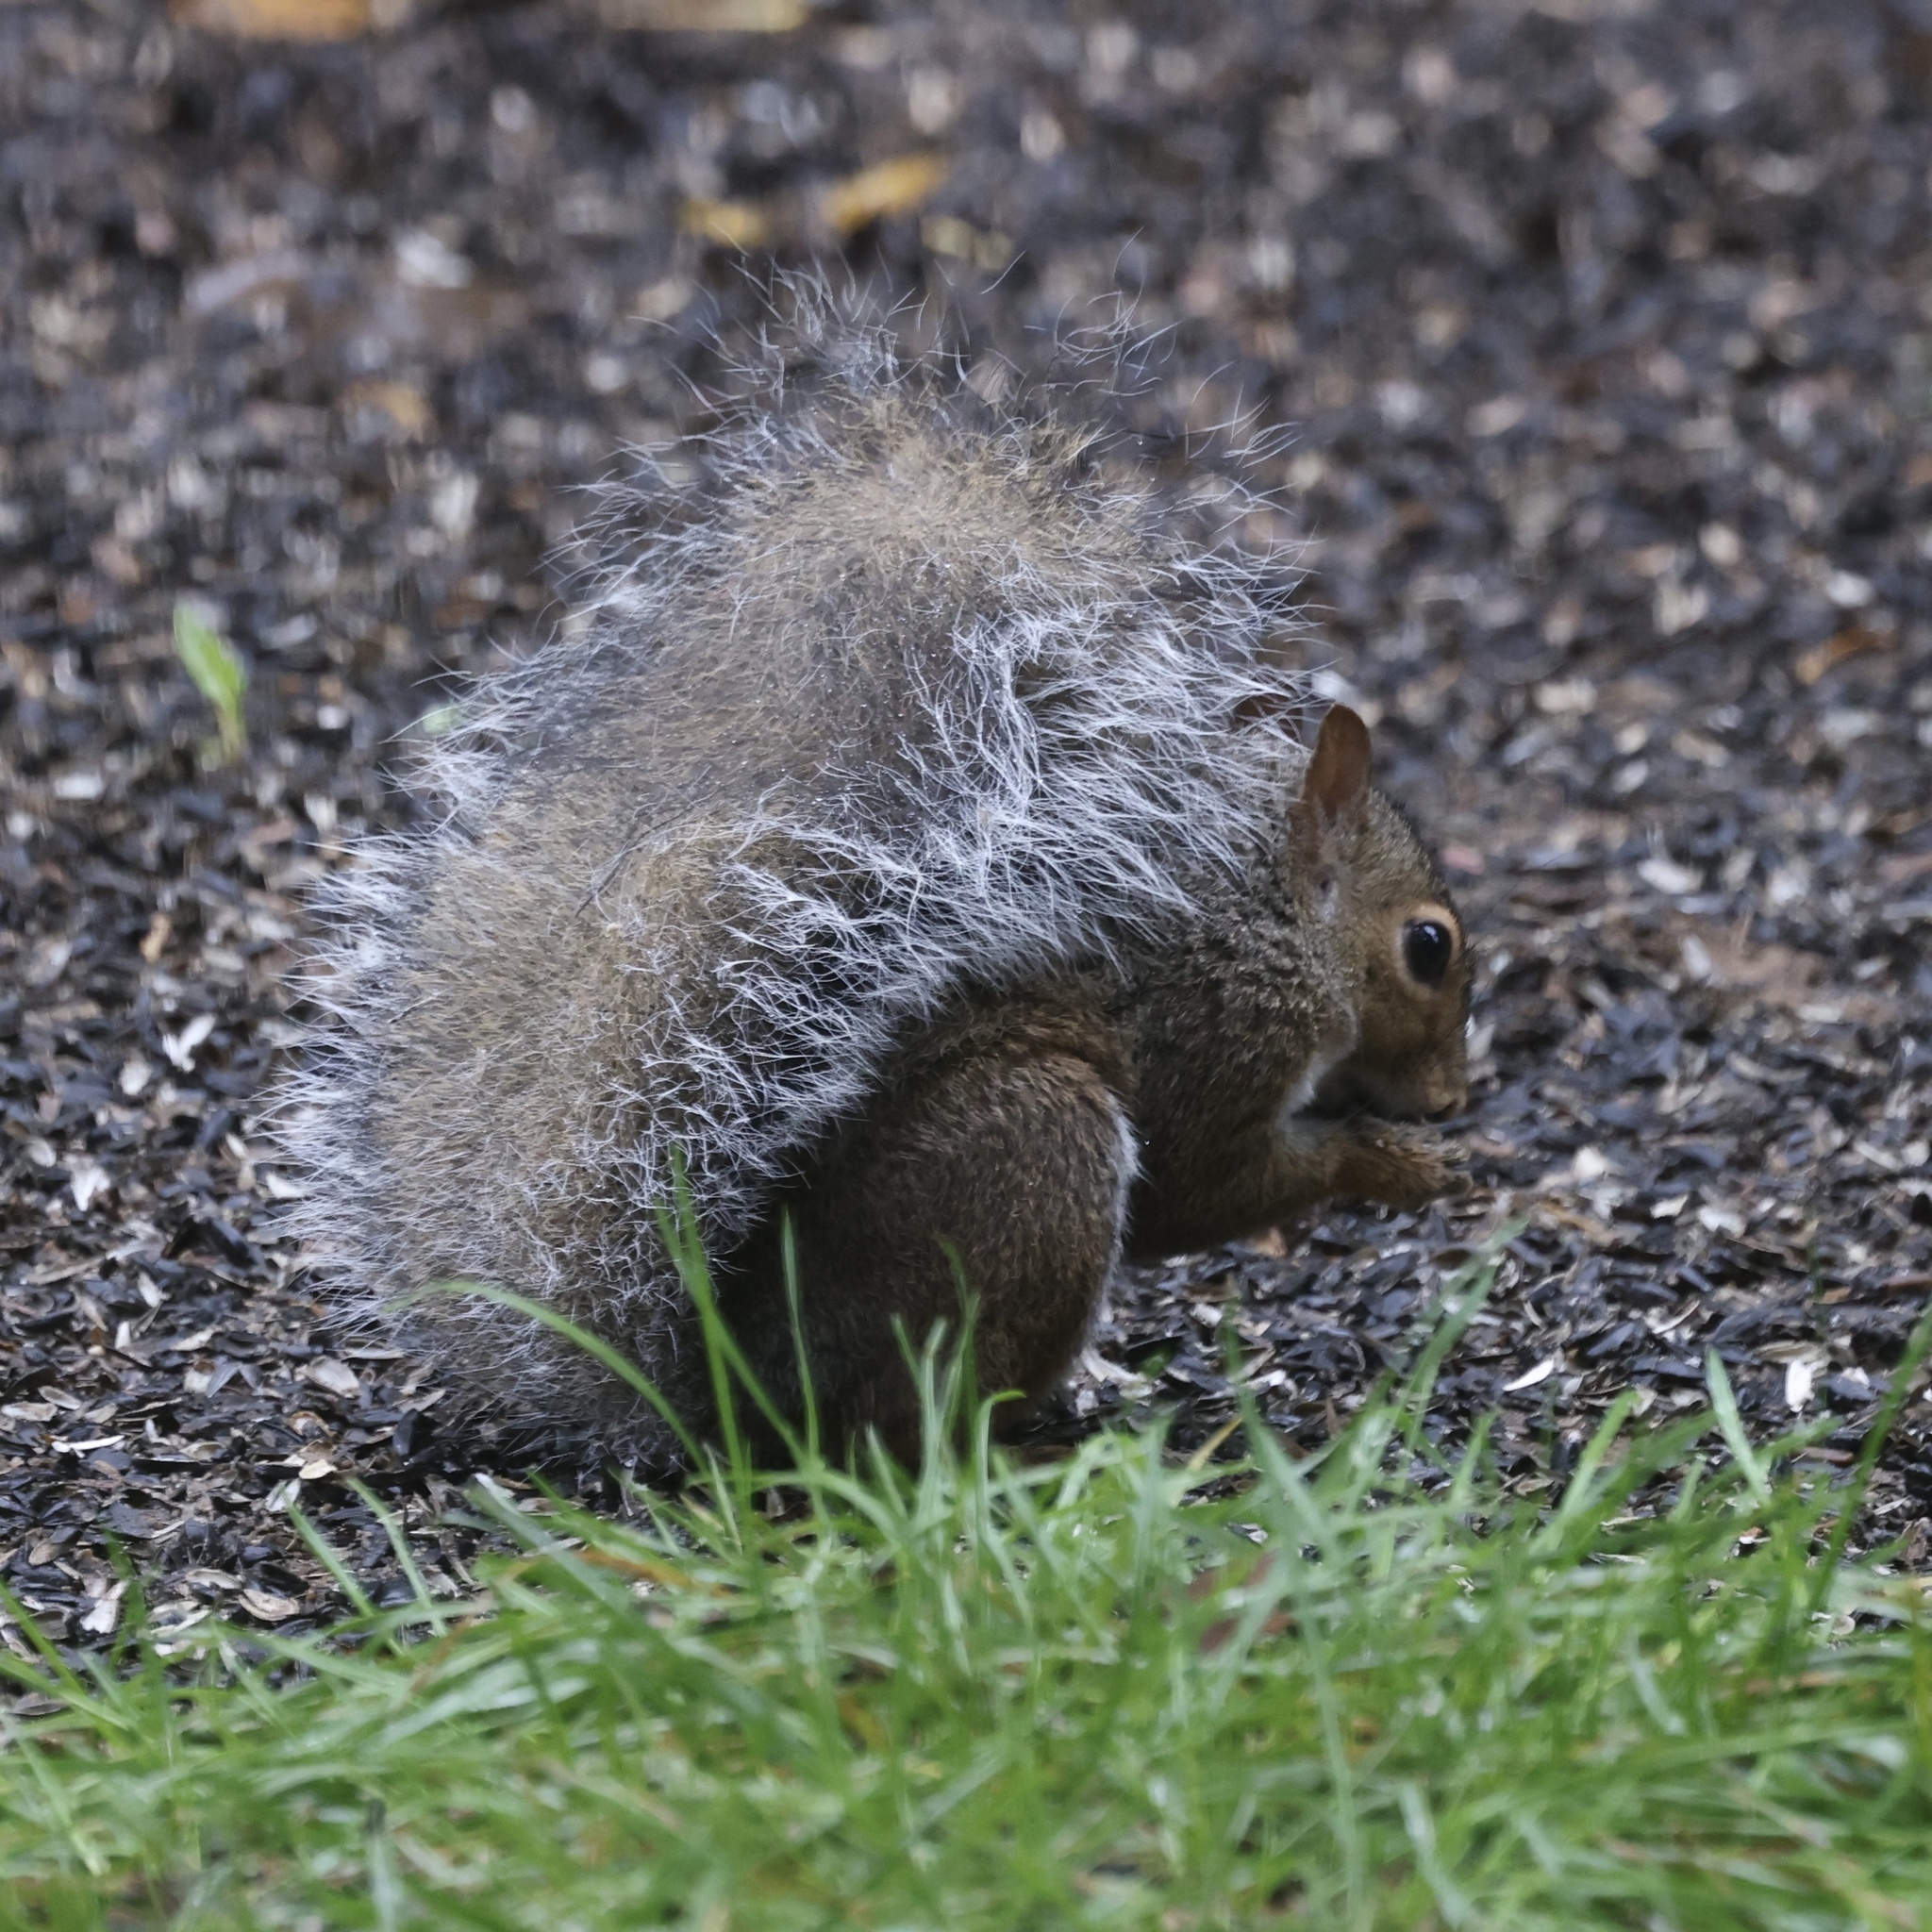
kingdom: Animalia
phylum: Chordata
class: Mammalia
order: Rodentia
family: Sciuridae
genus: Sciurus
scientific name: Sciurus carolinensis
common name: Eastern gray squirrel
